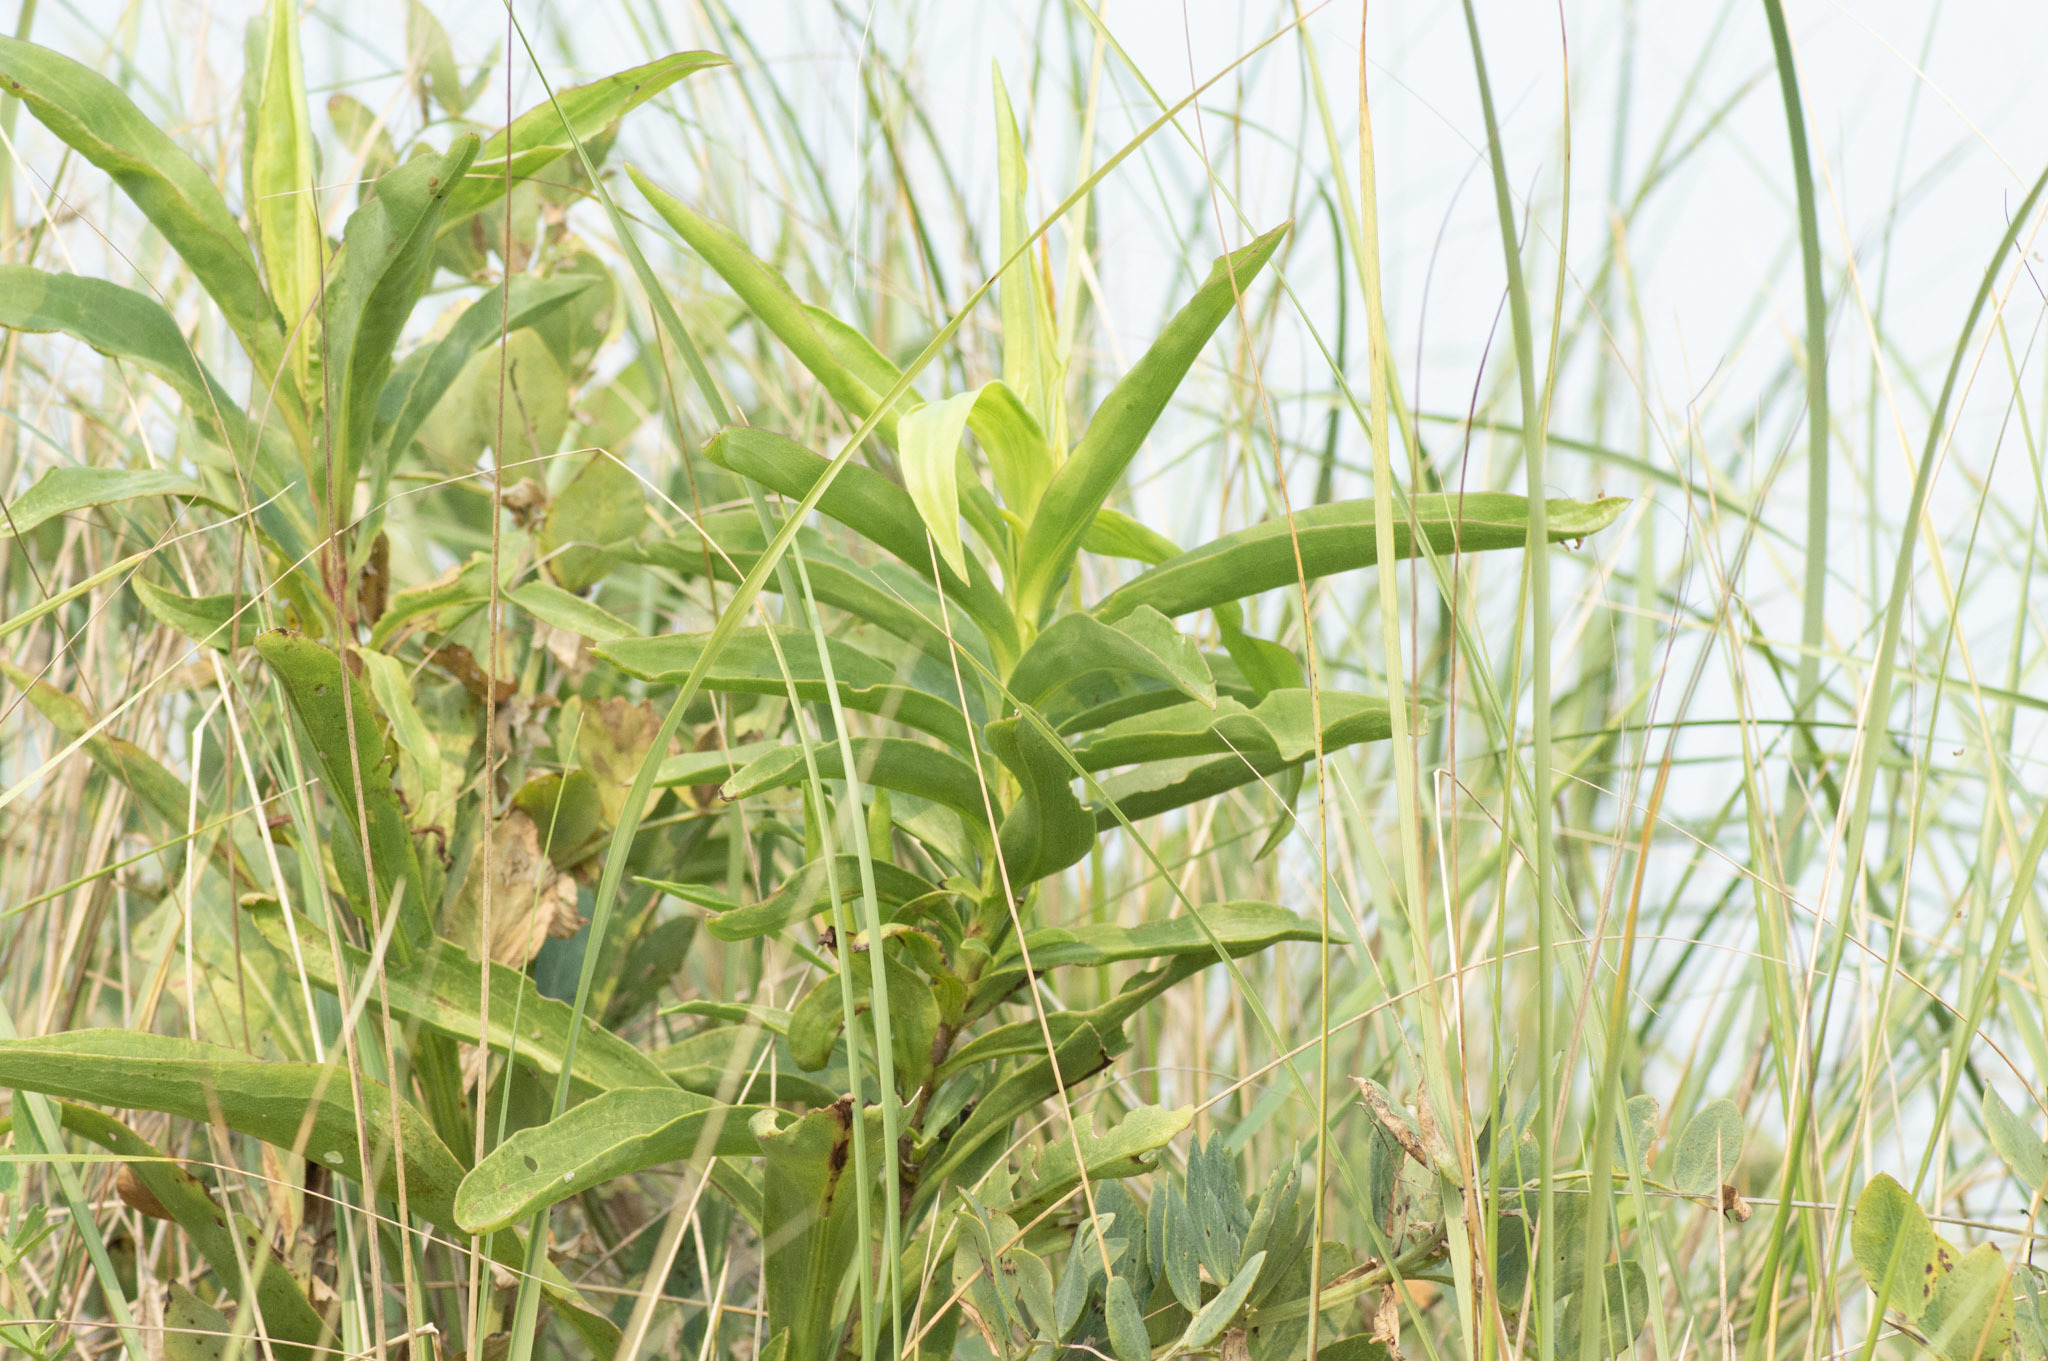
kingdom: Plantae
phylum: Tracheophyta
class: Magnoliopsida
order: Asterales
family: Asteraceae
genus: Solidago
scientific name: Solidago sempervirens
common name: Salt-marsh goldenrod
